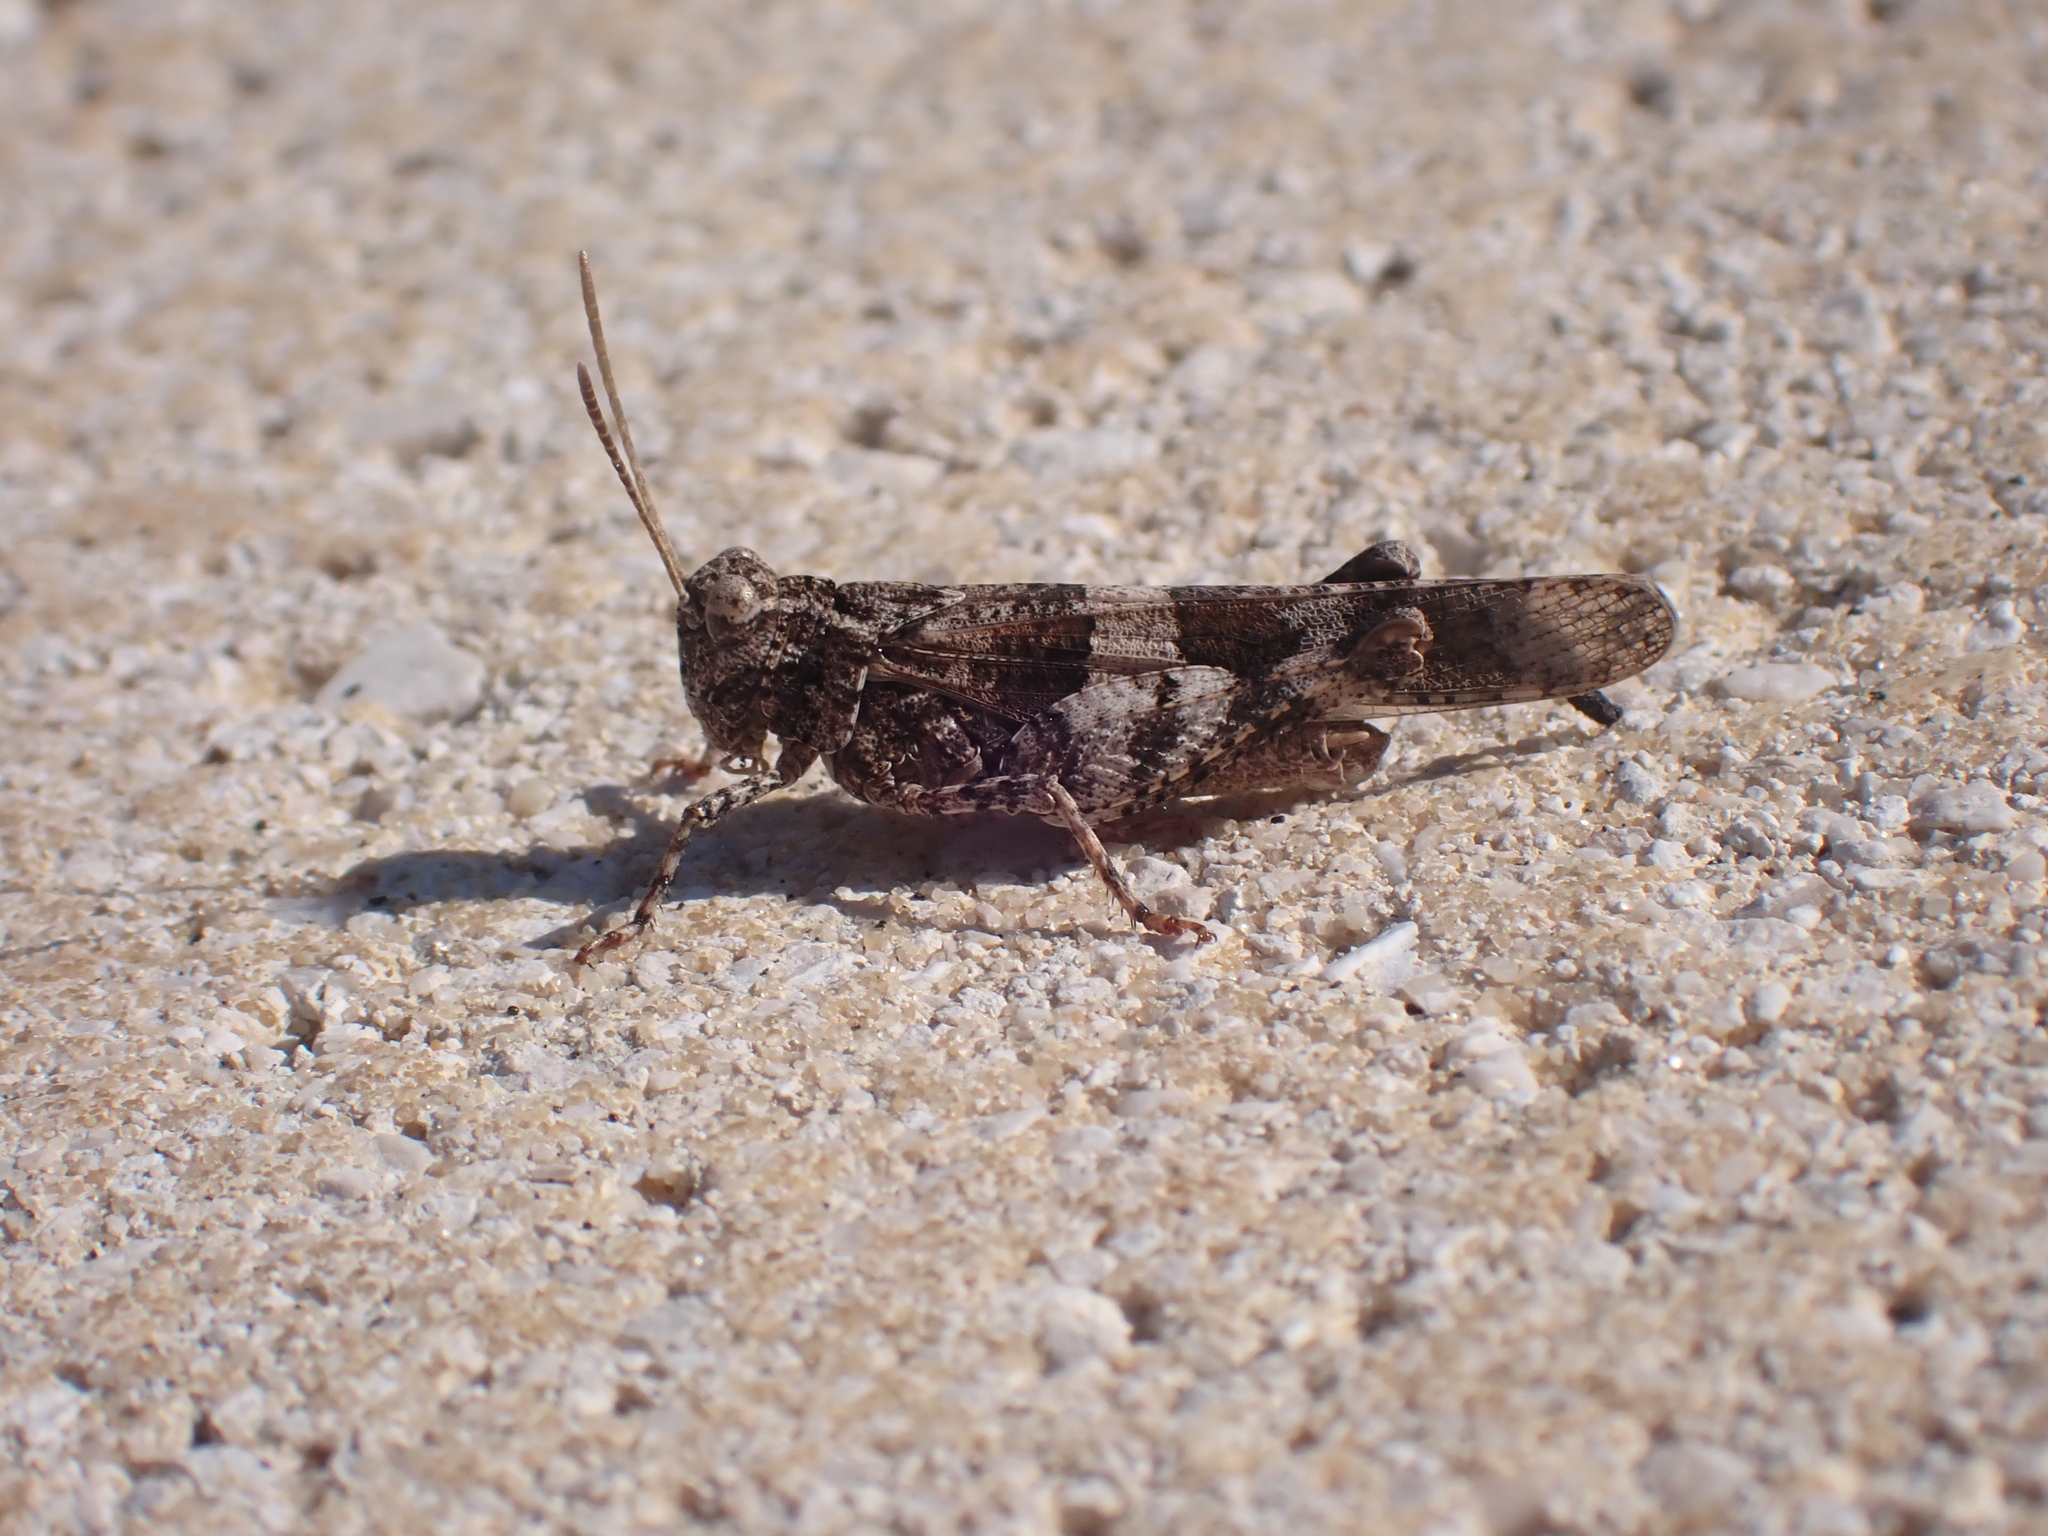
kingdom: Animalia
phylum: Arthropoda
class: Insecta
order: Orthoptera
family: Acrididae
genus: Oedipoda
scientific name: Oedipoda caerulescens
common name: Blue-winged grasshopper
